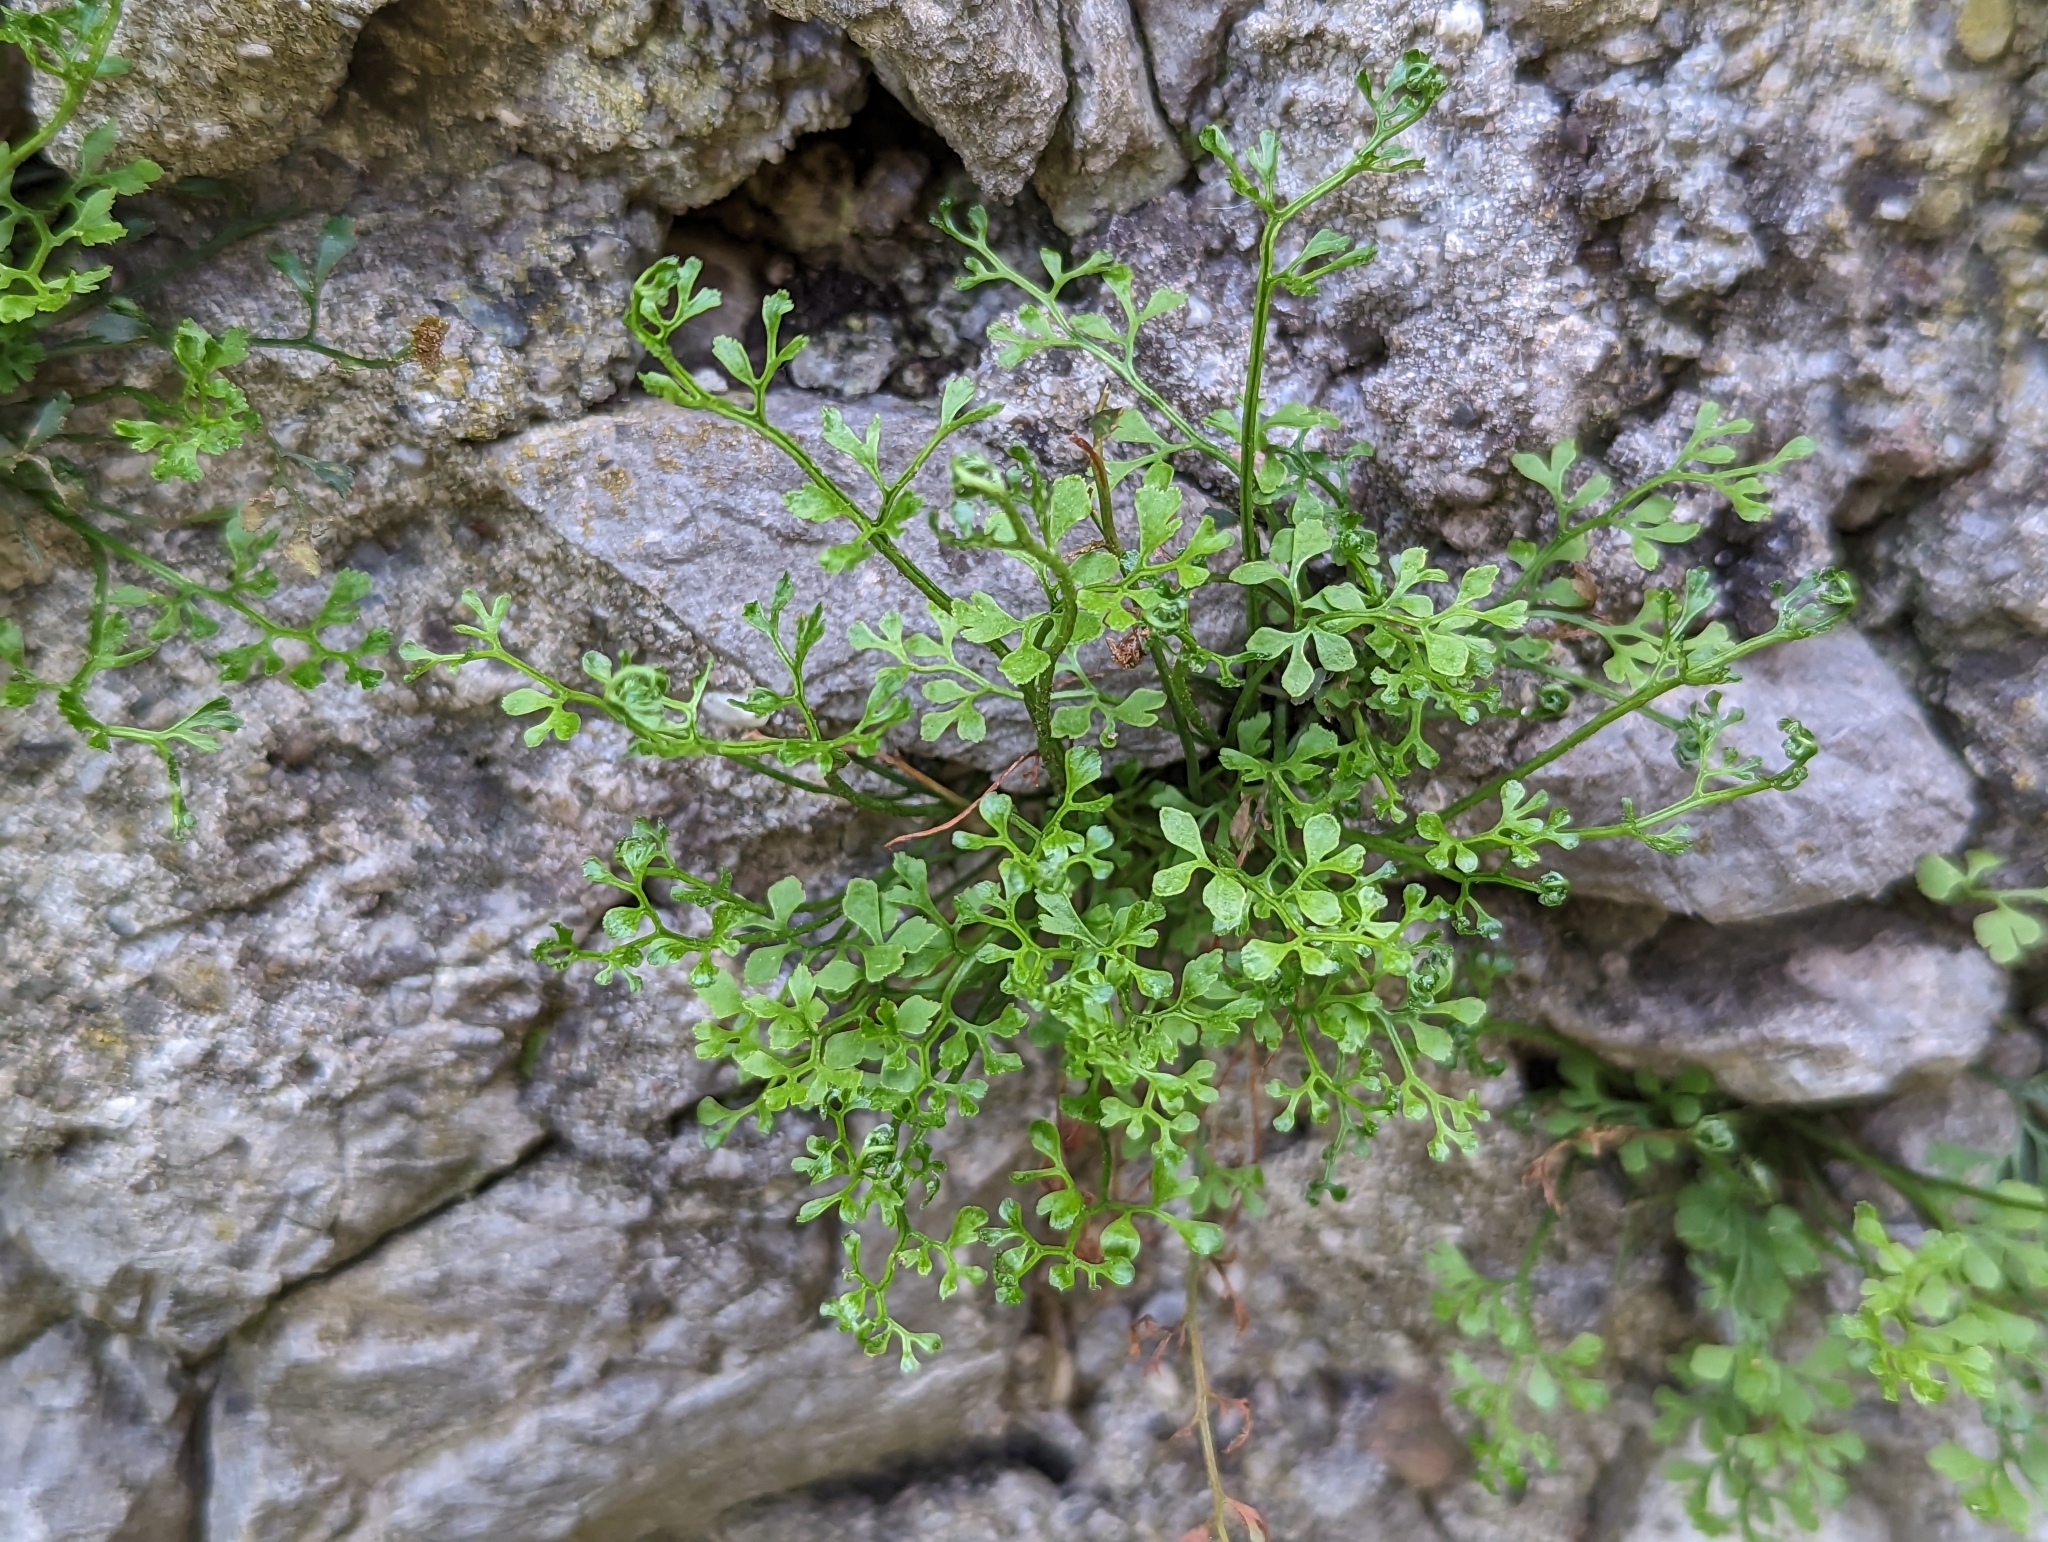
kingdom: Plantae
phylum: Tracheophyta
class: Polypodiopsida
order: Polypodiales
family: Aspleniaceae
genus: Asplenium
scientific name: Asplenium ruta-muraria
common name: Wall-rue
